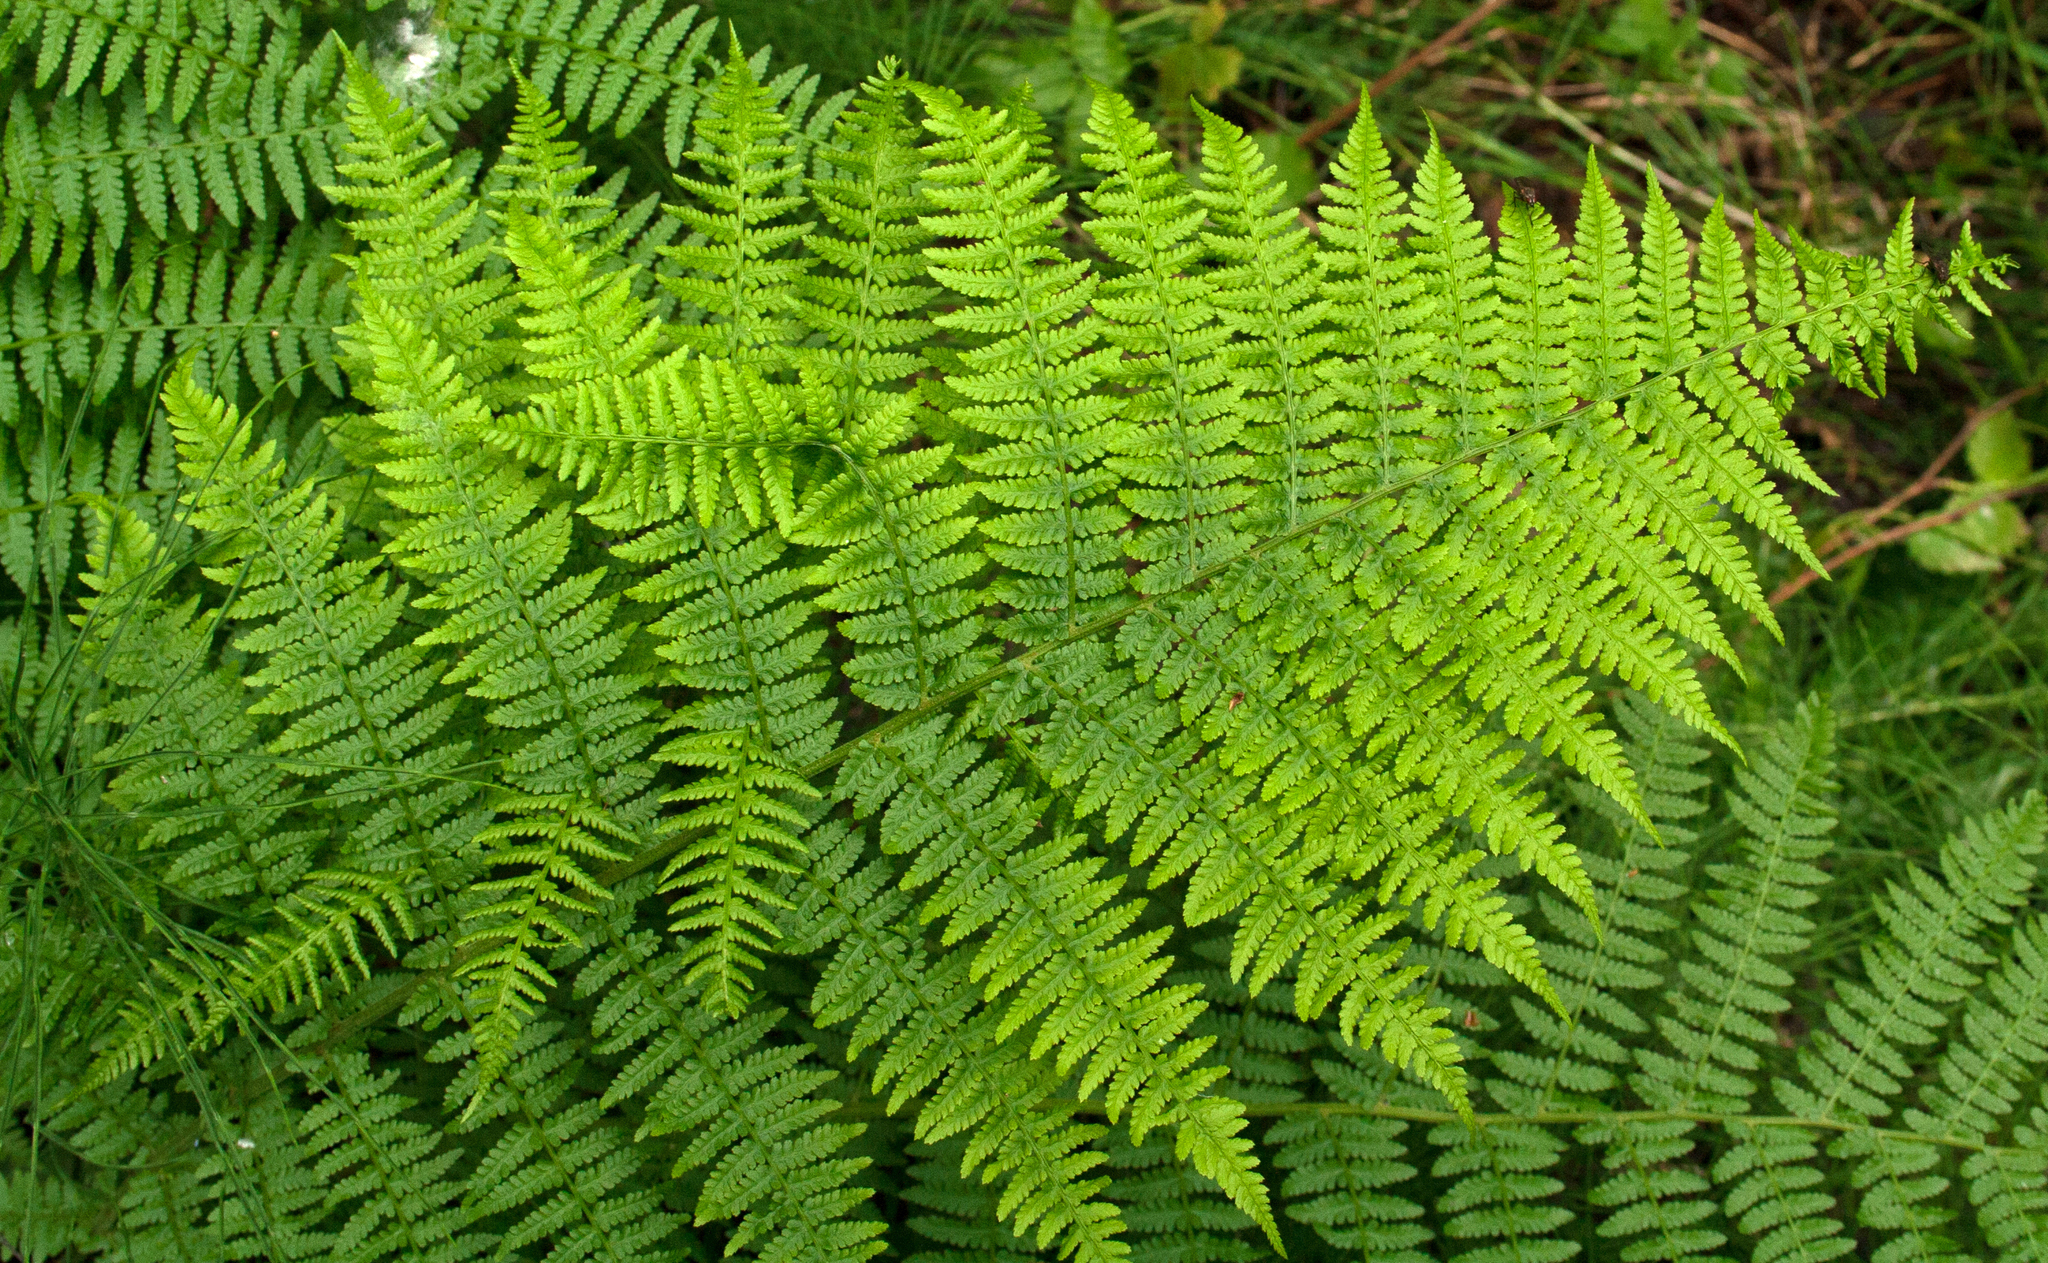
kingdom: Plantae
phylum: Tracheophyta
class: Polypodiopsida
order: Polypodiales
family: Athyriaceae
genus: Athyrium
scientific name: Athyrium filix-femina
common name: Lady fern
